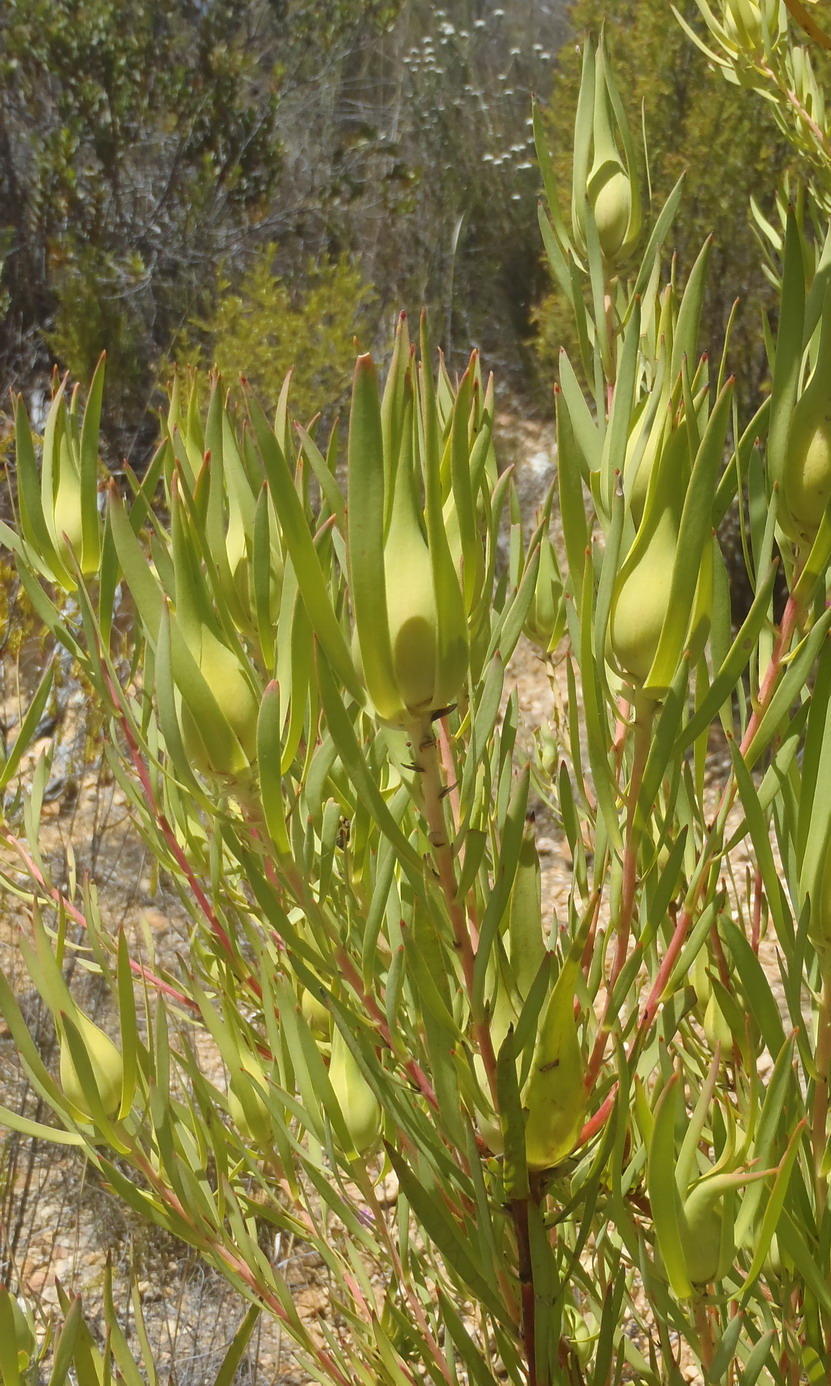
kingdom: Plantae
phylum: Tracheophyta
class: Magnoliopsida
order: Proteales
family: Proteaceae
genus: Leucadendron
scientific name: Leucadendron salignum
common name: Common sunshine conebush
